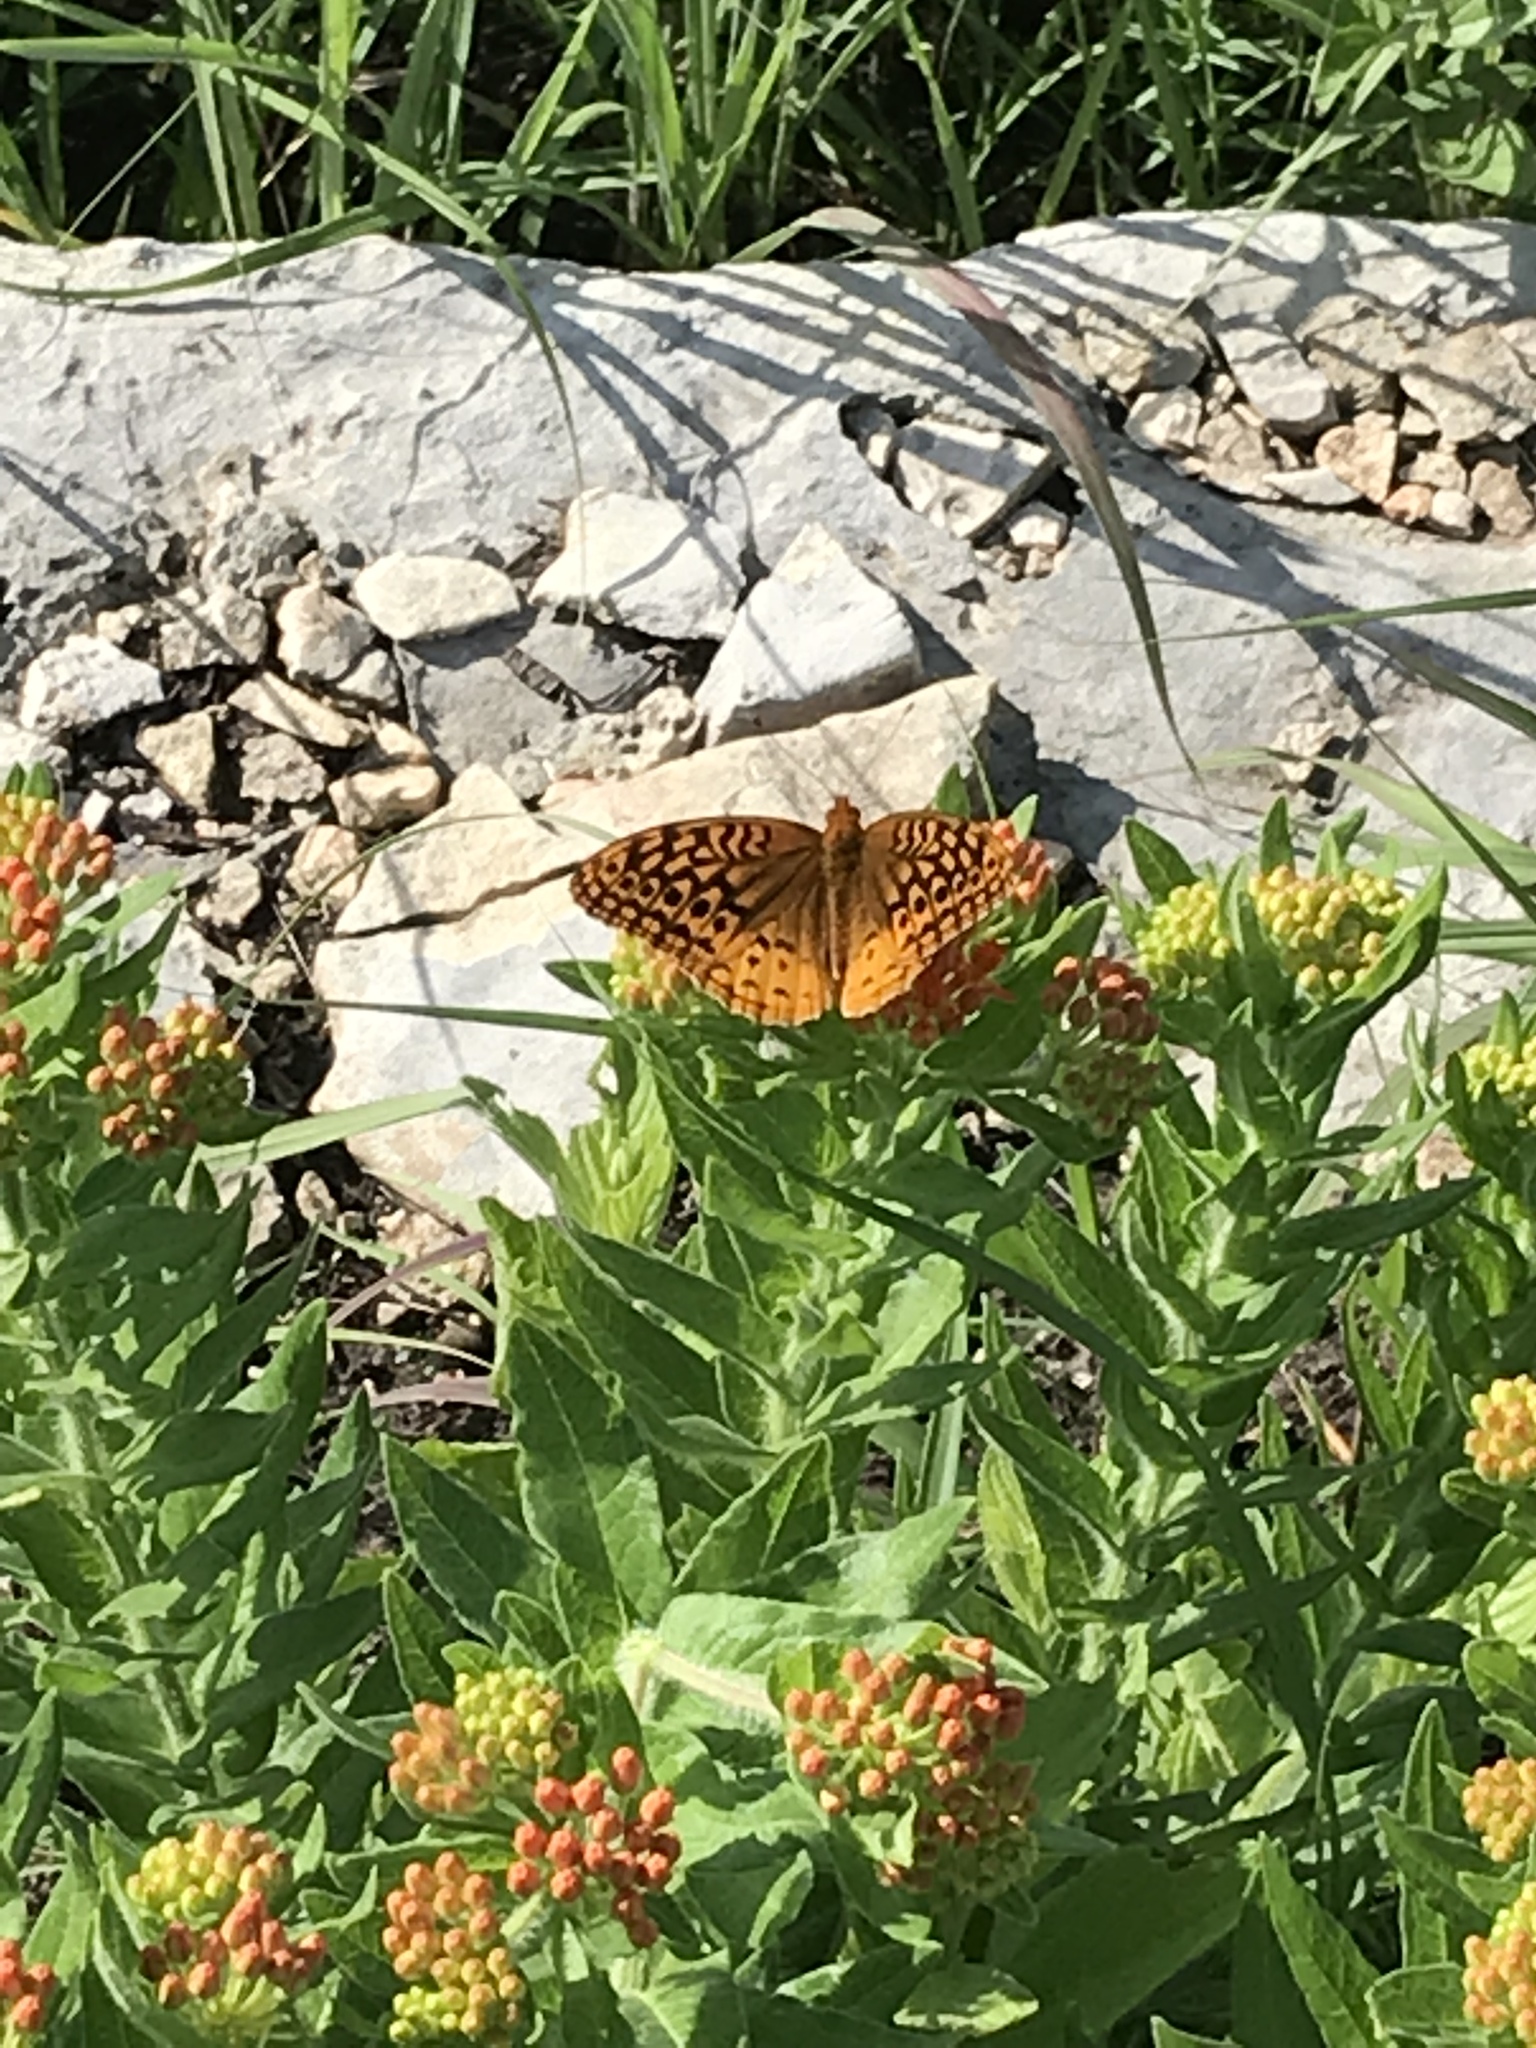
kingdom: Animalia
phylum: Arthropoda
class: Insecta
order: Lepidoptera
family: Nymphalidae
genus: Speyeria
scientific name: Speyeria cybele
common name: Great spangled fritillary
